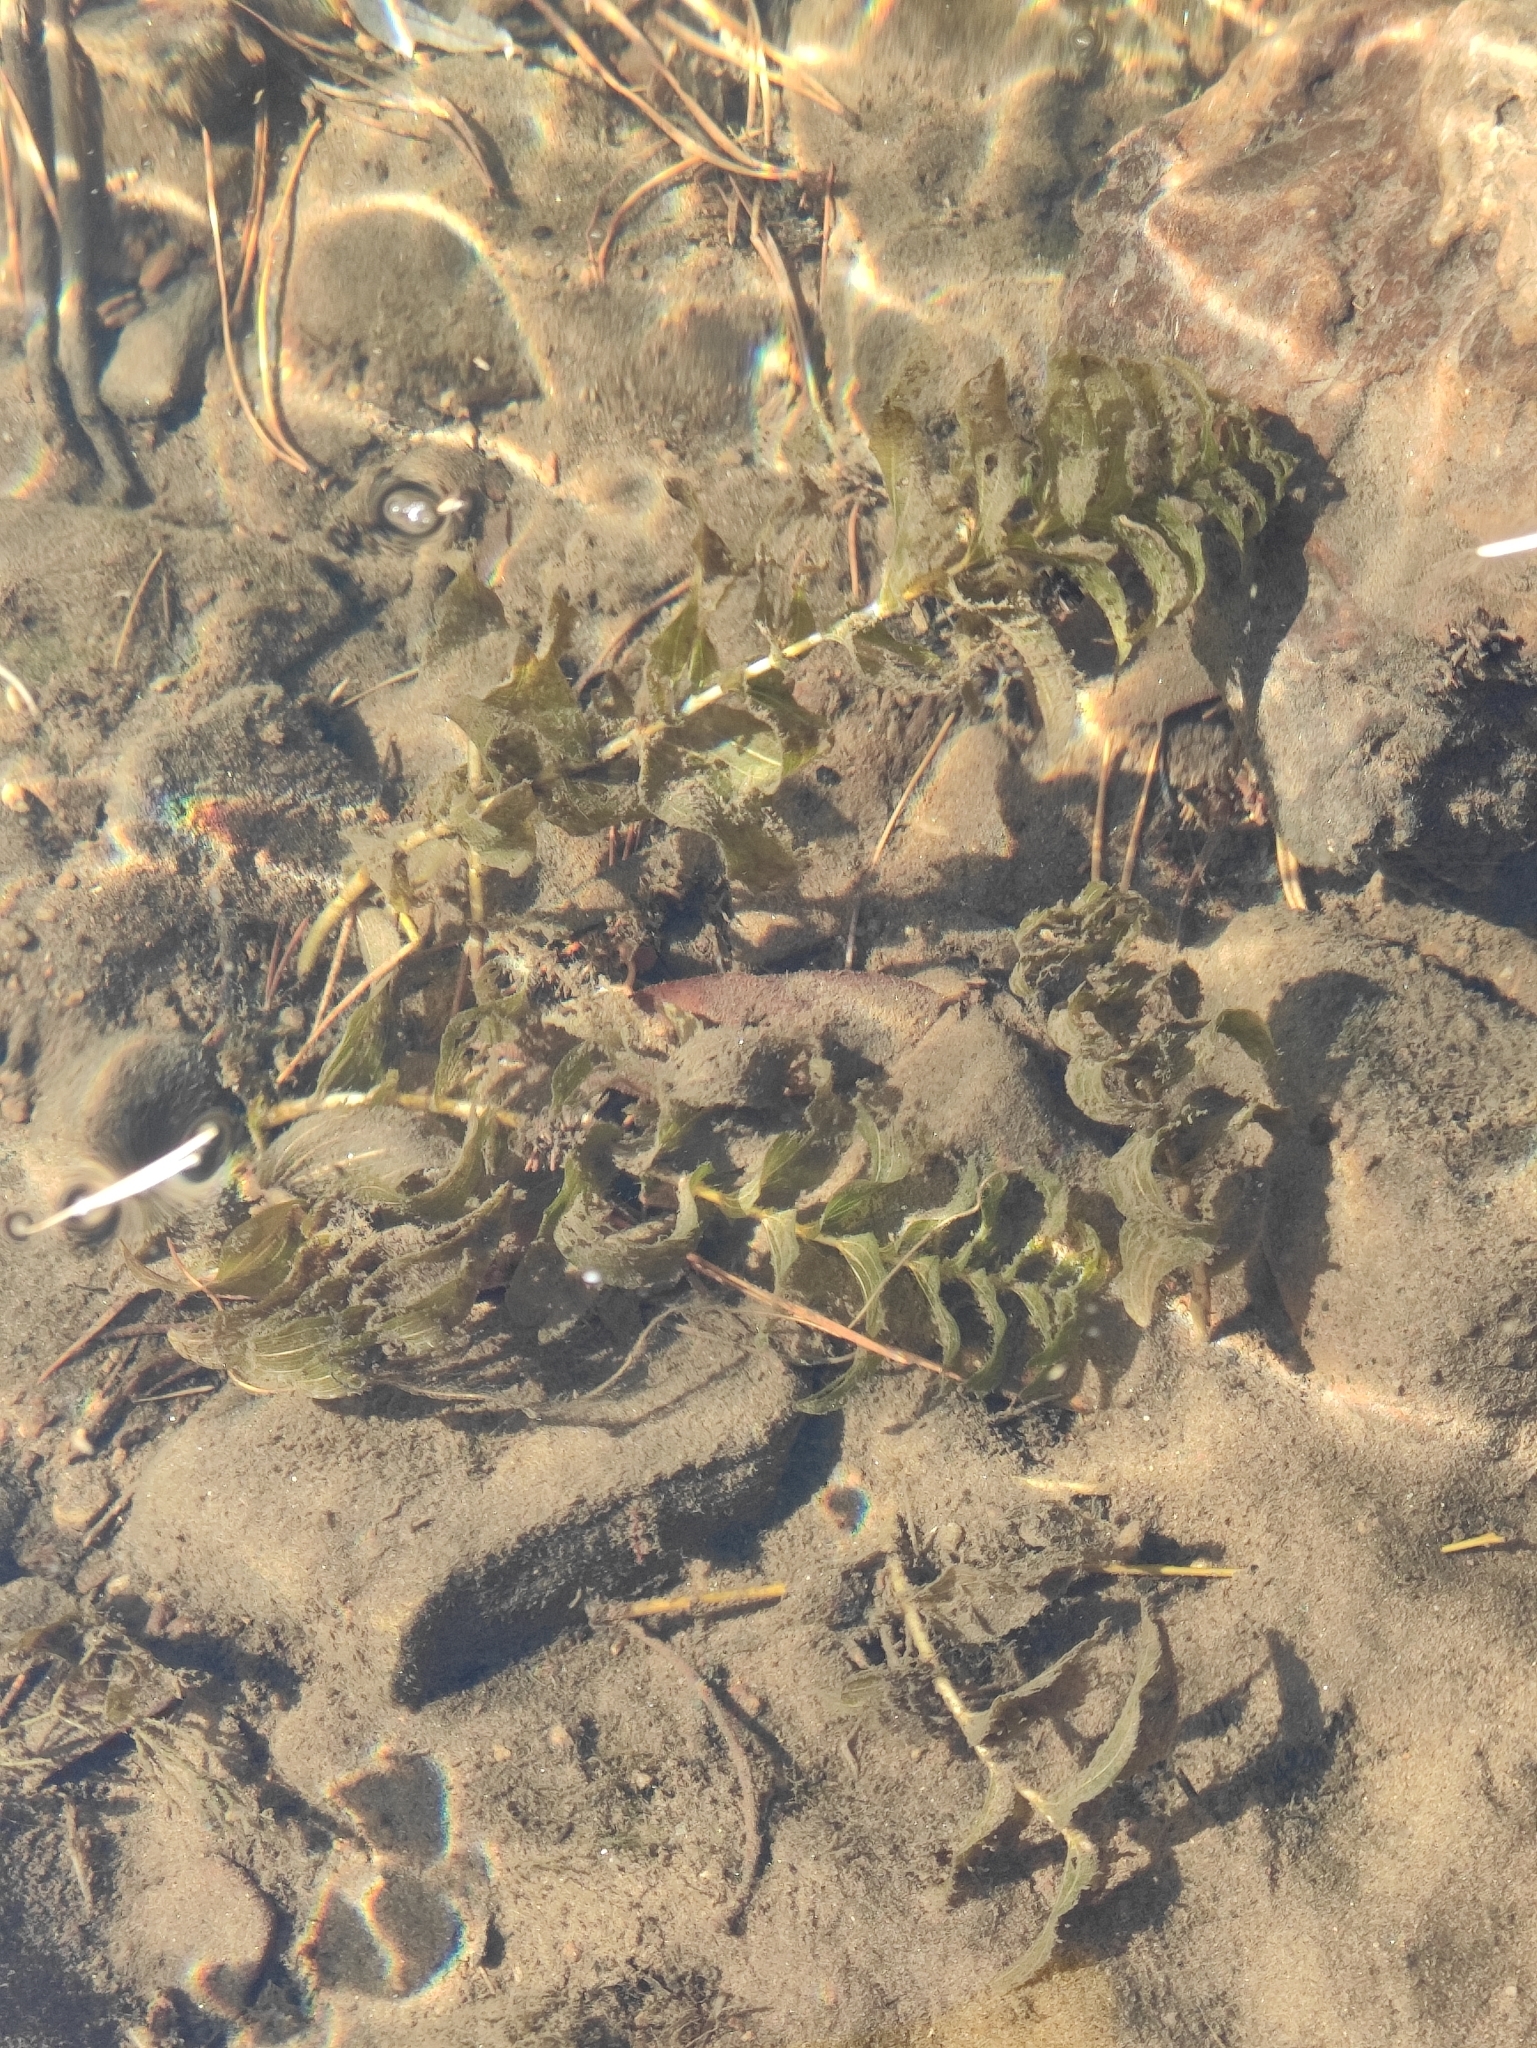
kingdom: Plantae
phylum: Tracheophyta
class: Liliopsida
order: Alismatales
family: Potamogetonaceae
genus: Potamogeton
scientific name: Potamogeton perfoliatus
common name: Perfoliate pondweed
